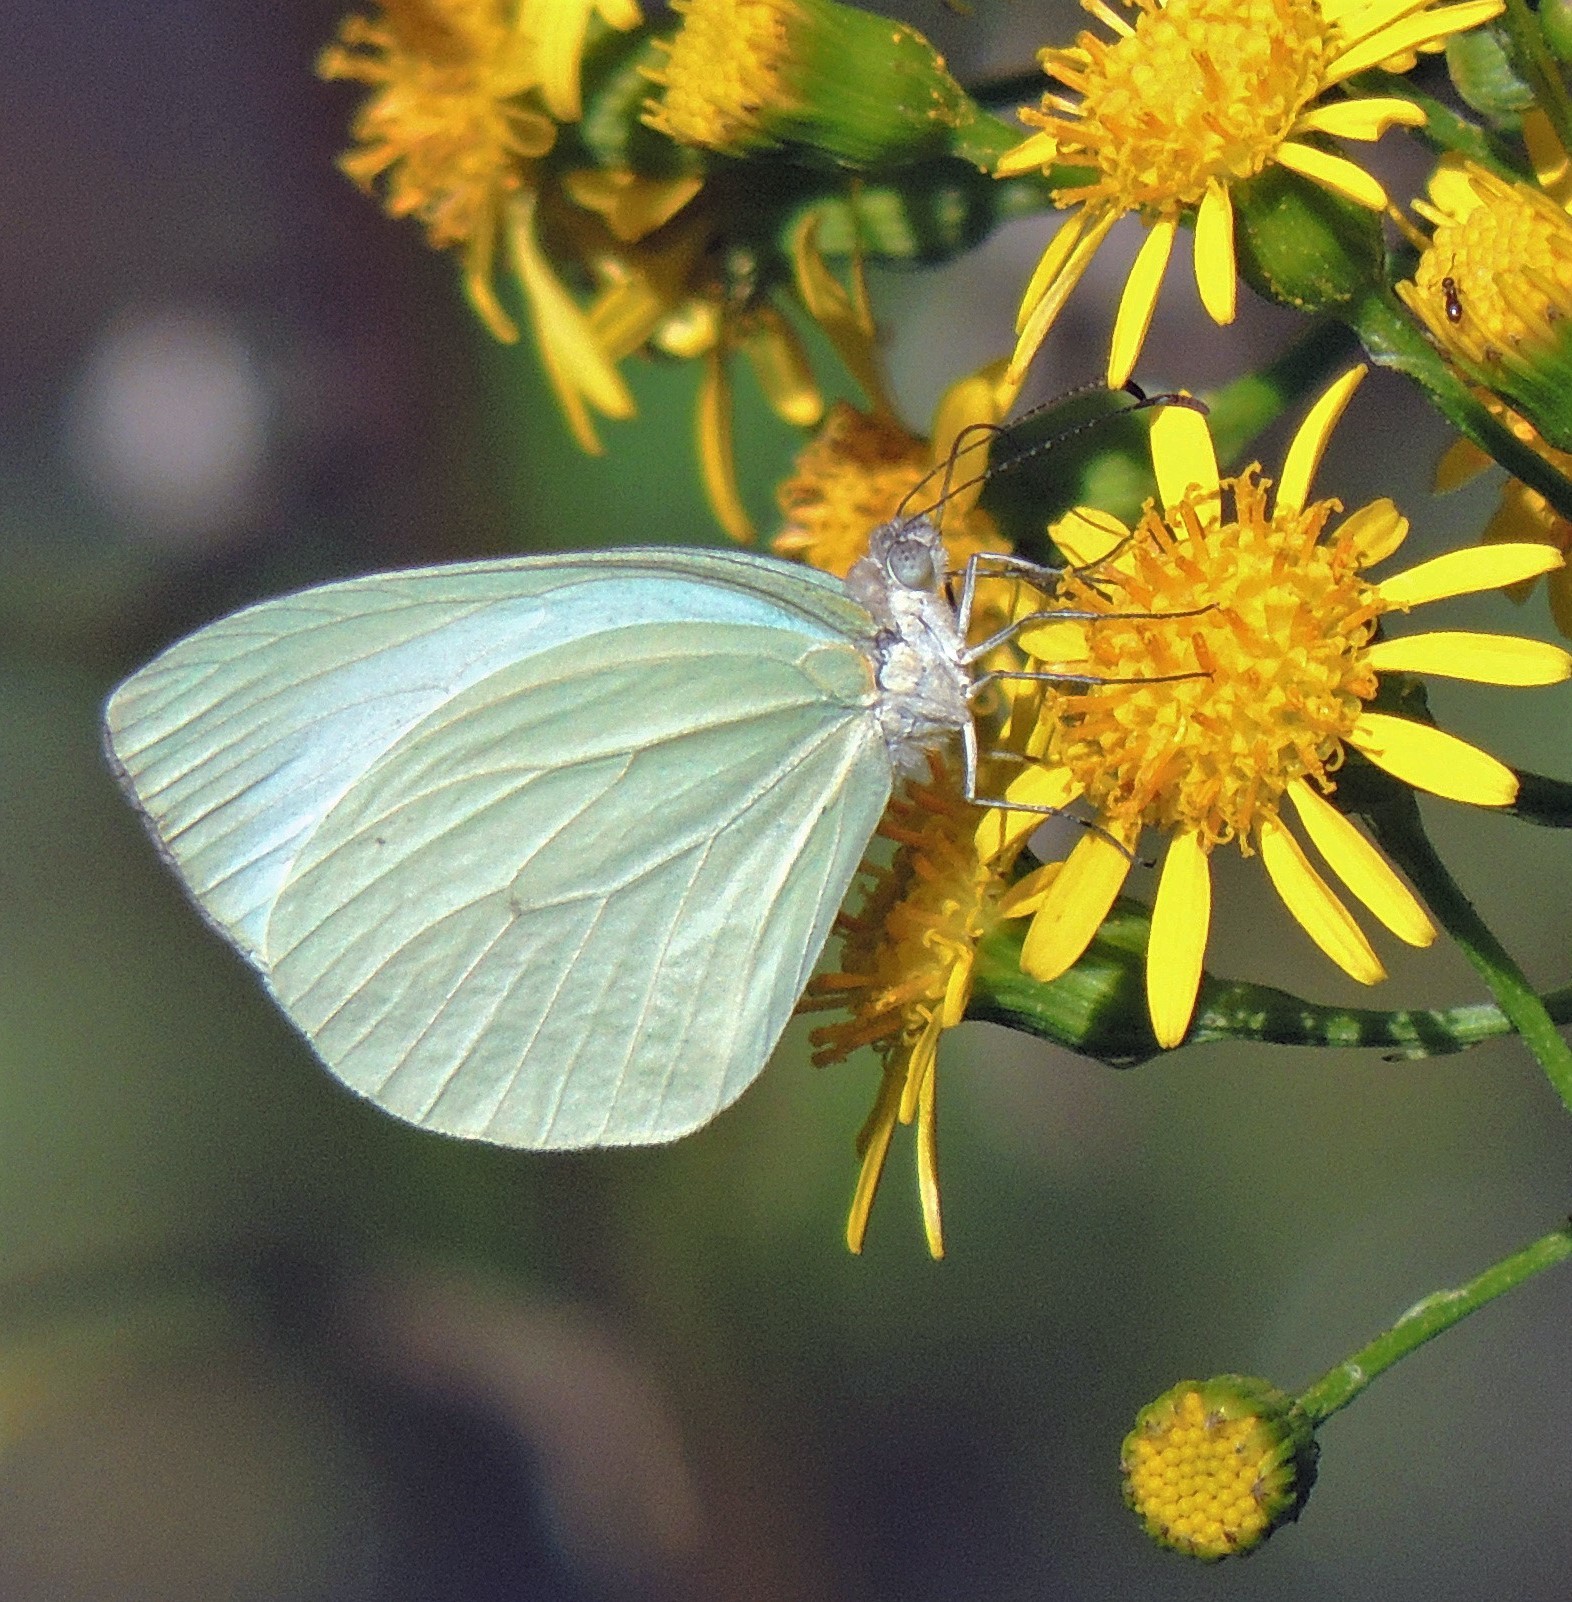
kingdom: Animalia
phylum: Arthropoda
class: Insecta
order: Lepidoptera
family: Pieridae
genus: Pseudopieris
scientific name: Pseudopieris nehemia
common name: Clean mimic-white
